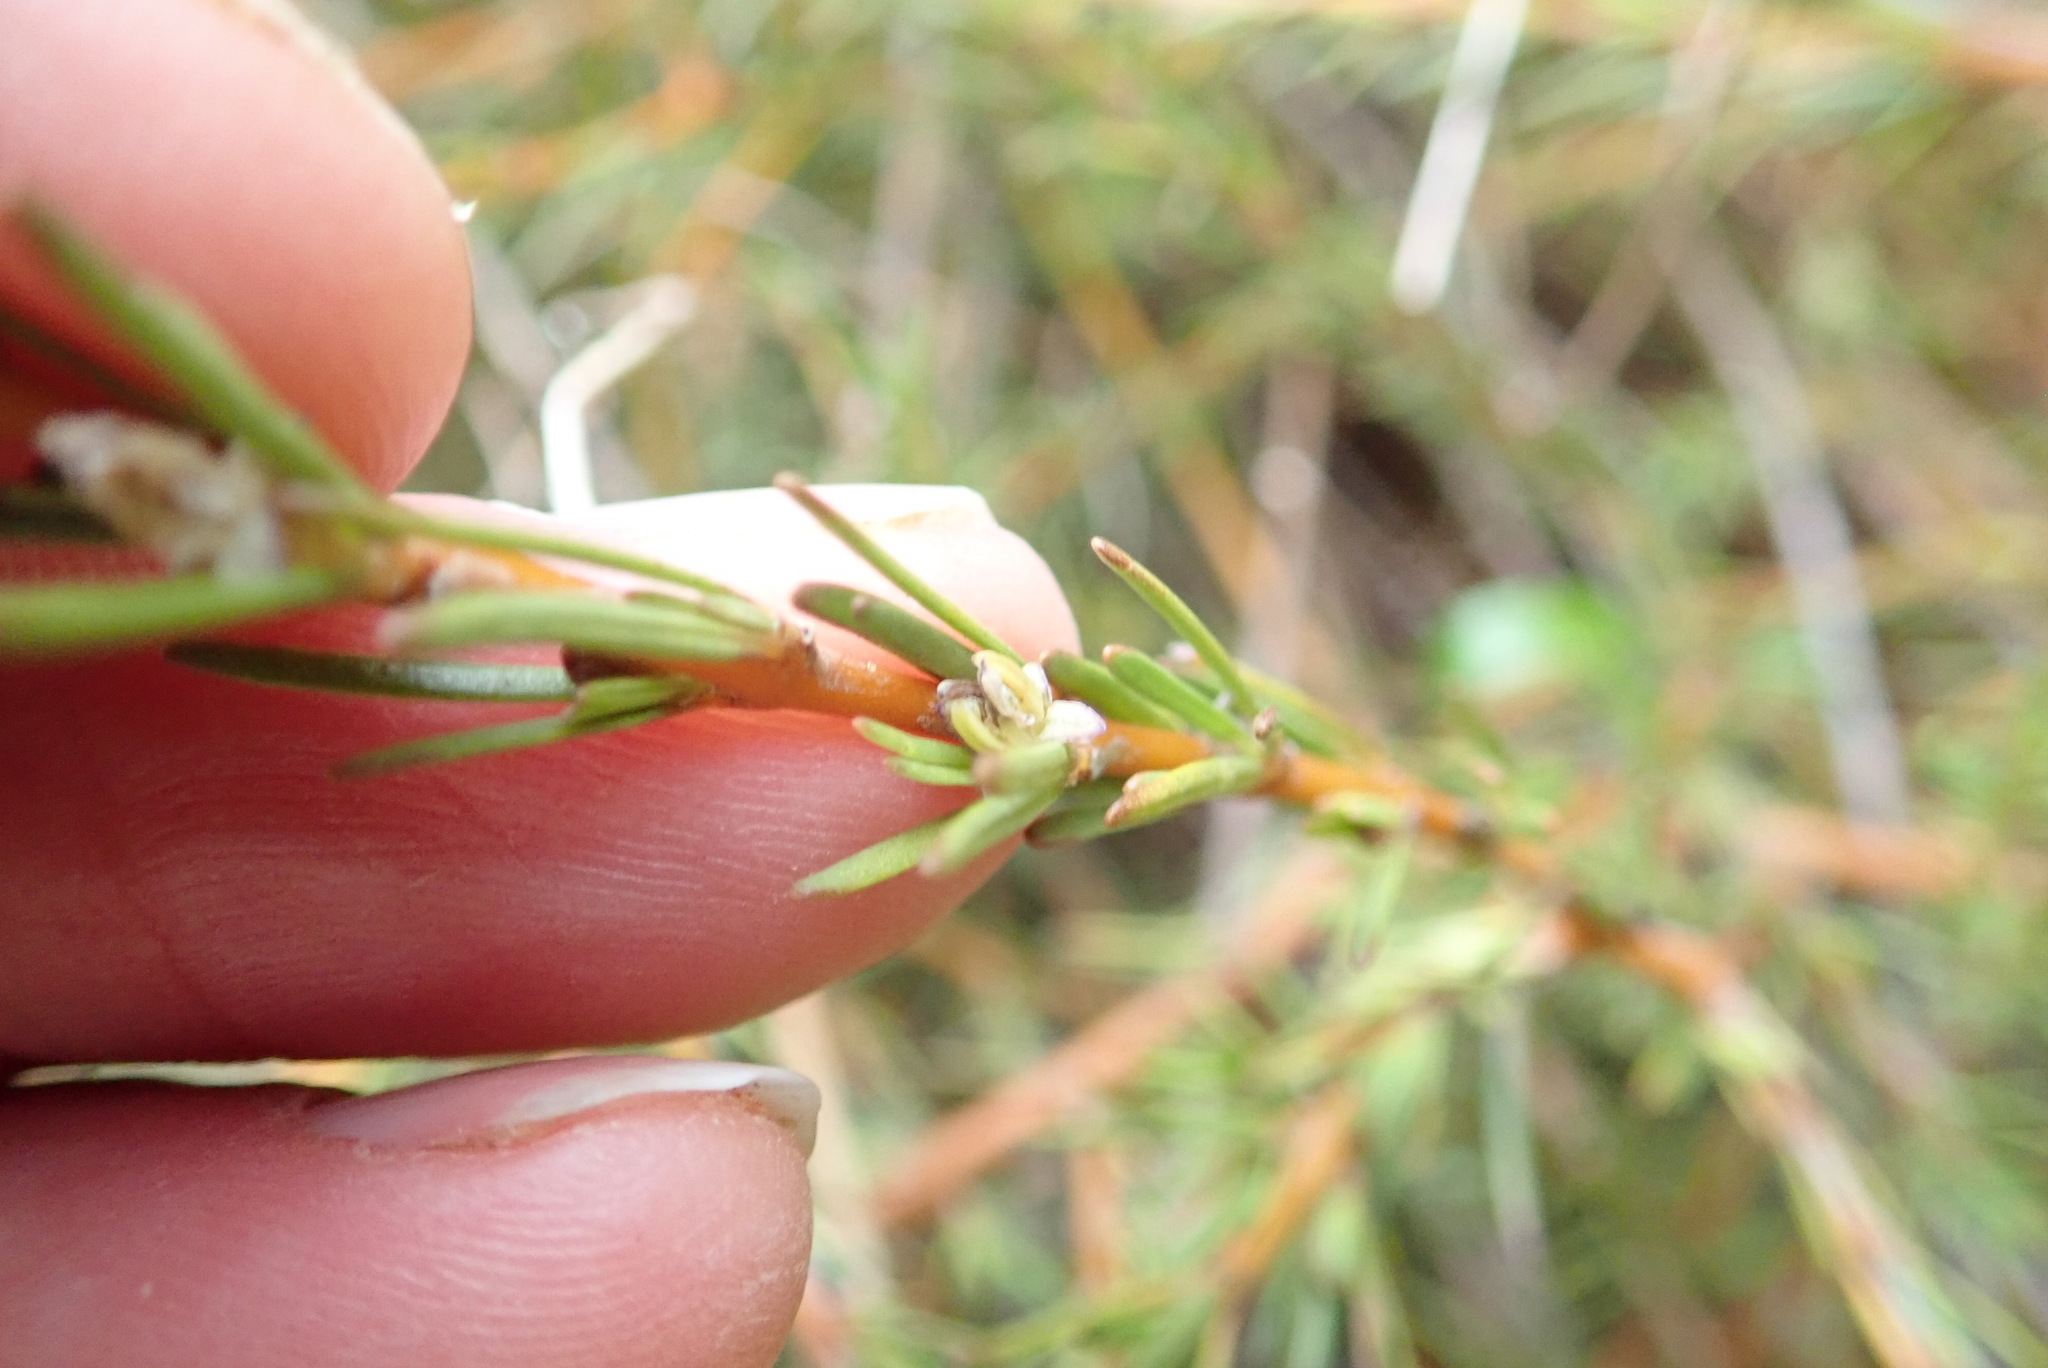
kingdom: Plantae
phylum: Tracheophyta
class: Magnoliopsida
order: Gentianales
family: Rubiaceae
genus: Coprosma
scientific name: Coprosma acerosa
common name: Sand coprosma
